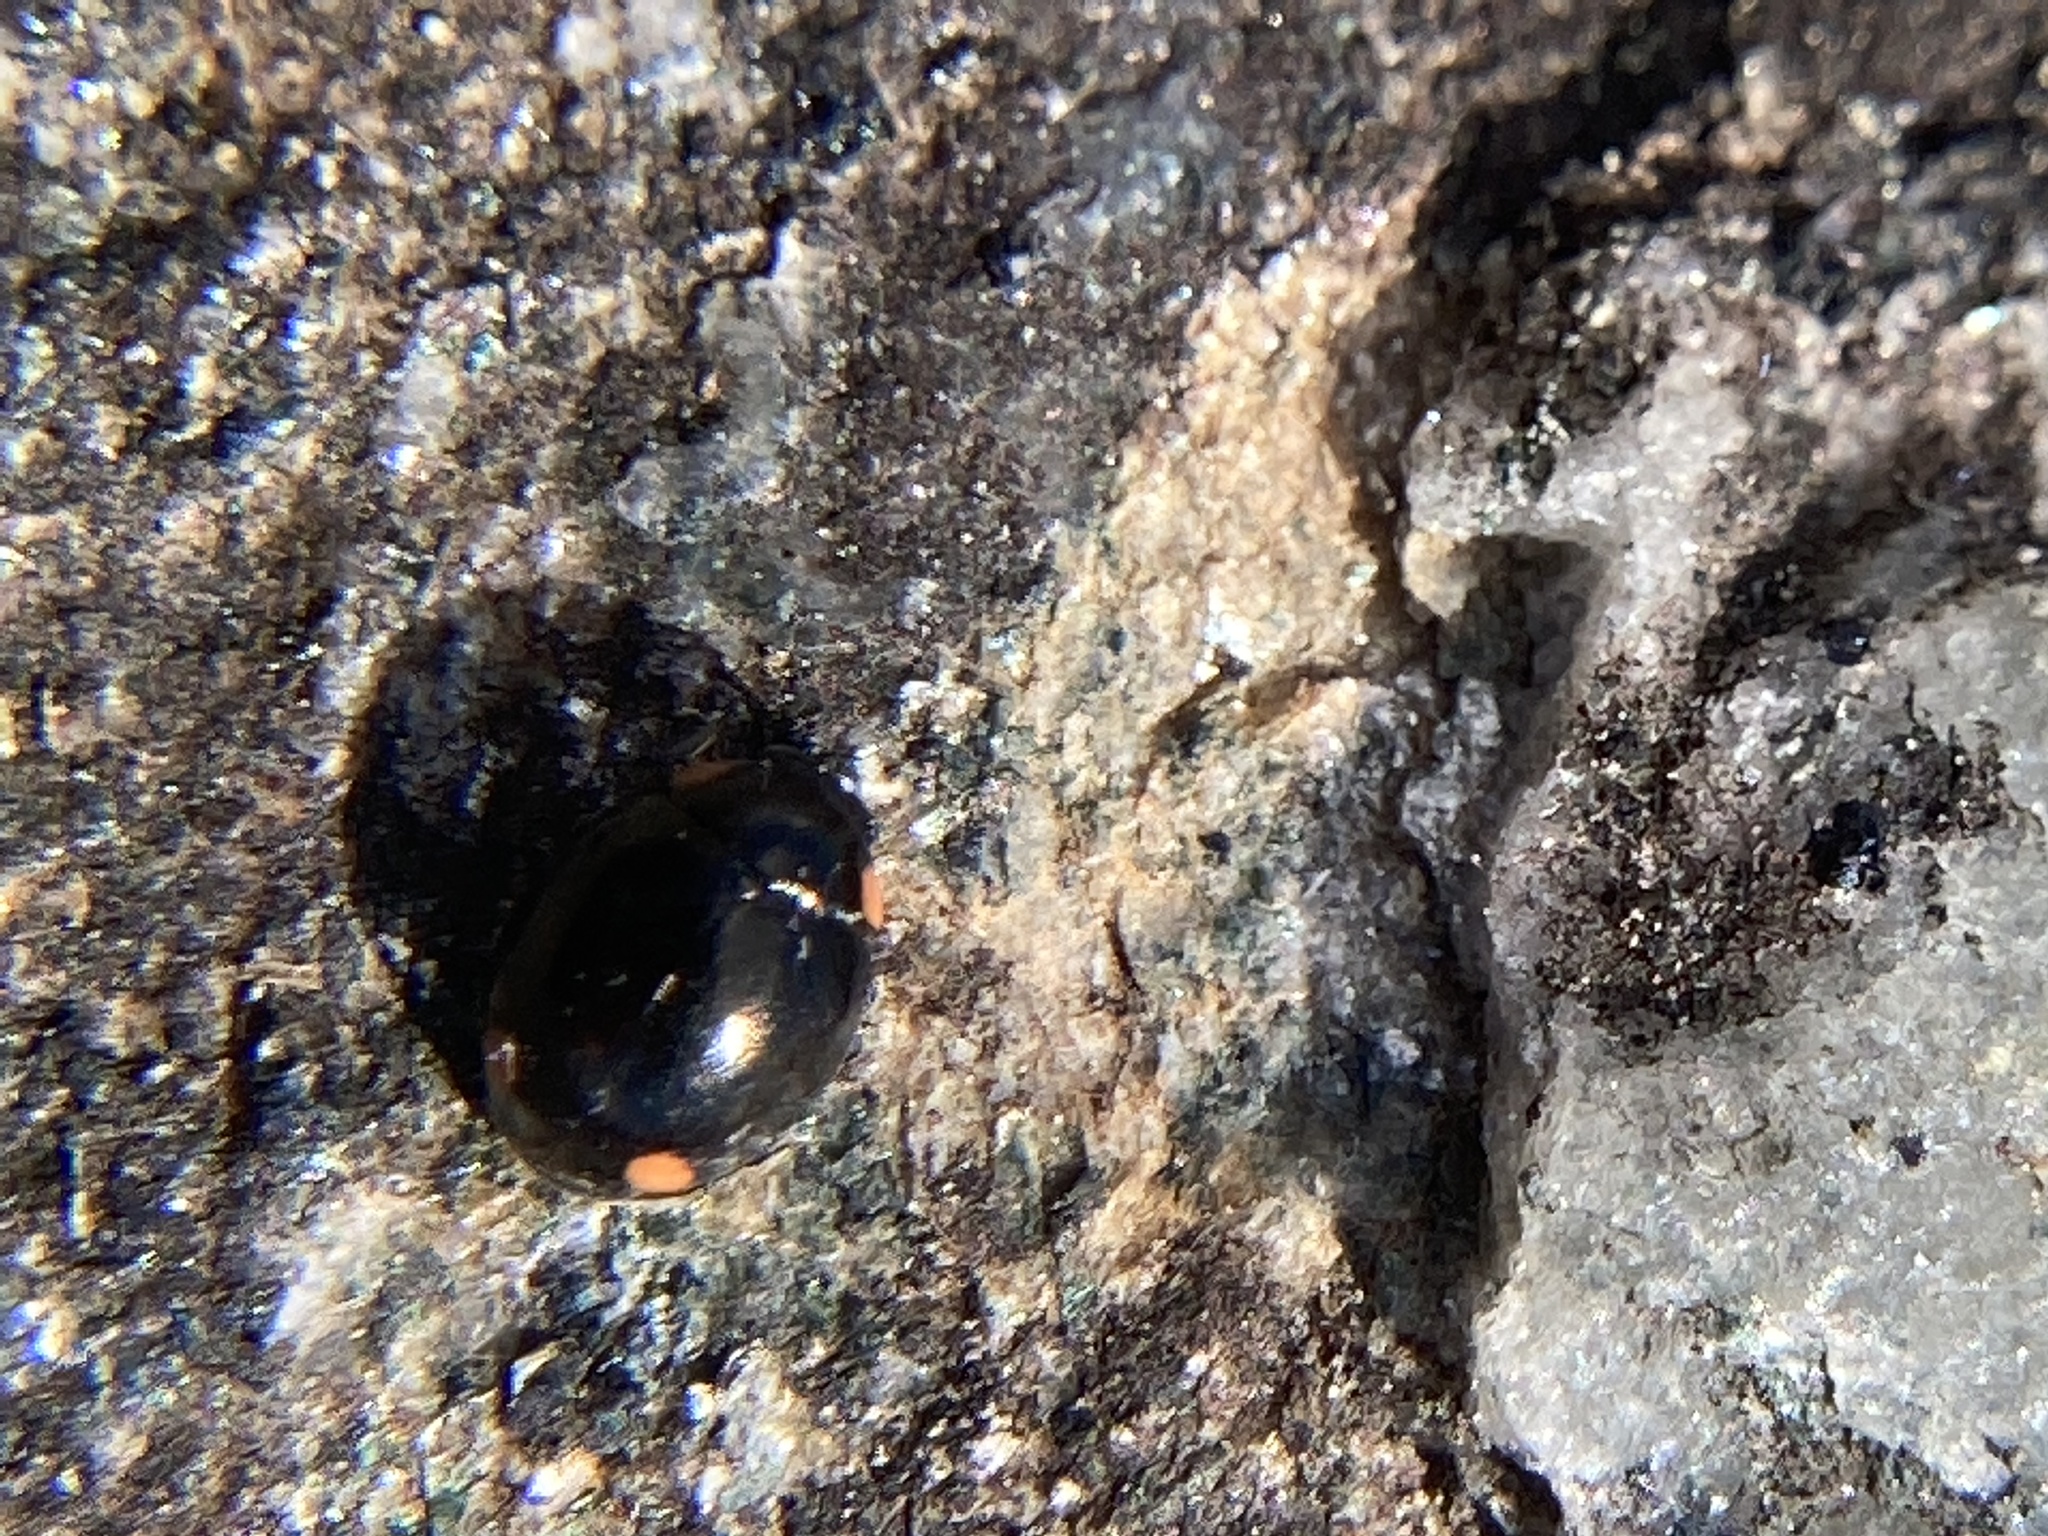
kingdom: Animalia
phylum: Arthropoda
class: Insecta
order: Coleoptera
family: Coccinellidae
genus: Hyperaspis
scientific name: Hyperaspis bigeminata
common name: Bigeminate sigil lady beetle
